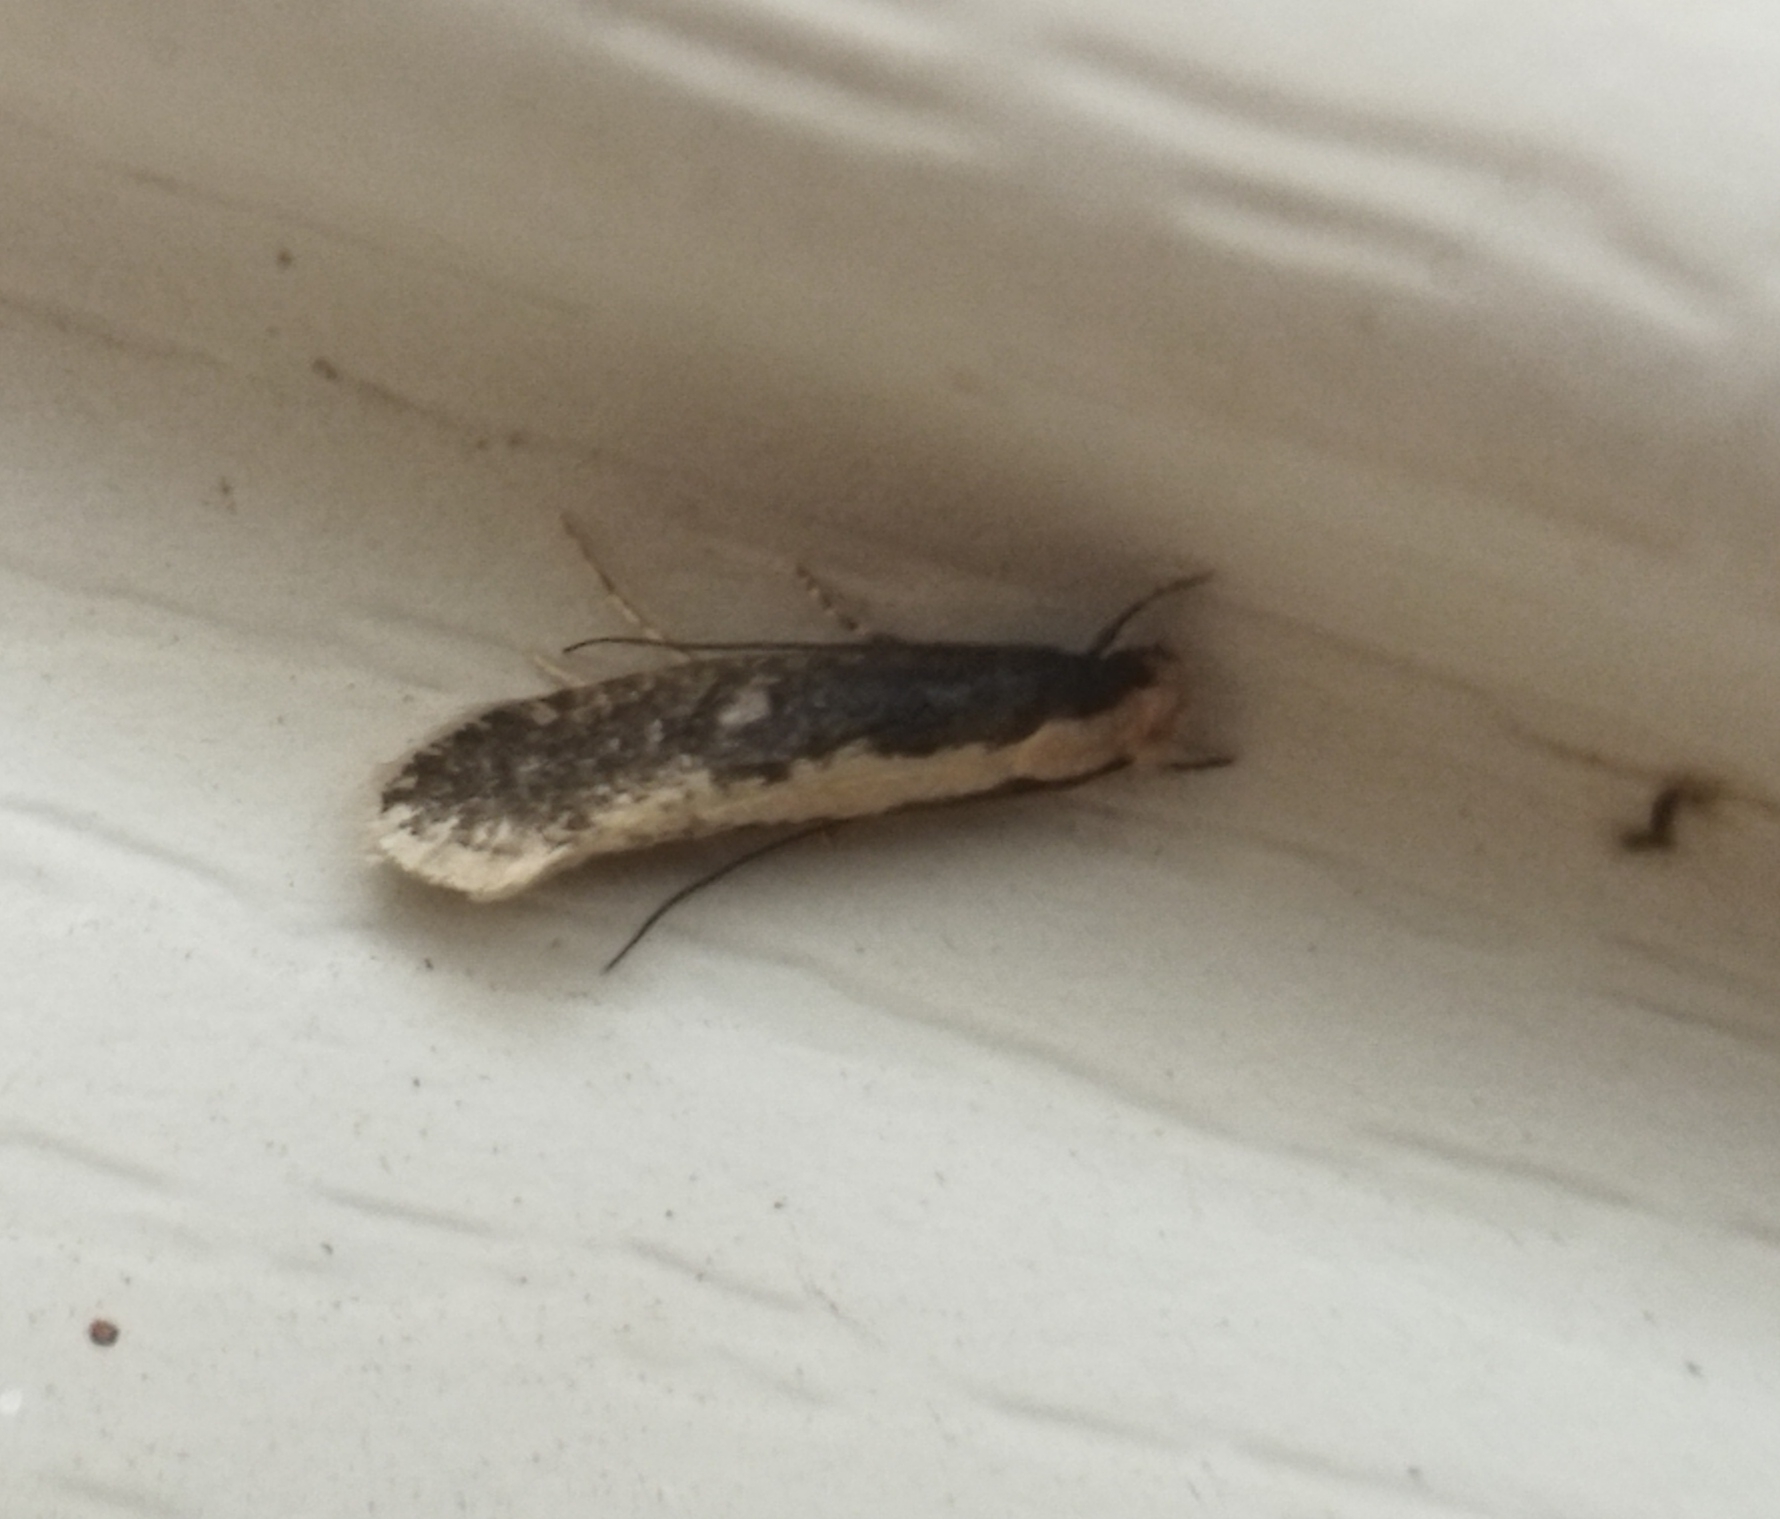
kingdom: Animalia
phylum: Arthropoda
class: Insecta
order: Lepidoptera
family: Tineidae
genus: Monopis
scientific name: Monopis crocicapitella
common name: Moth
